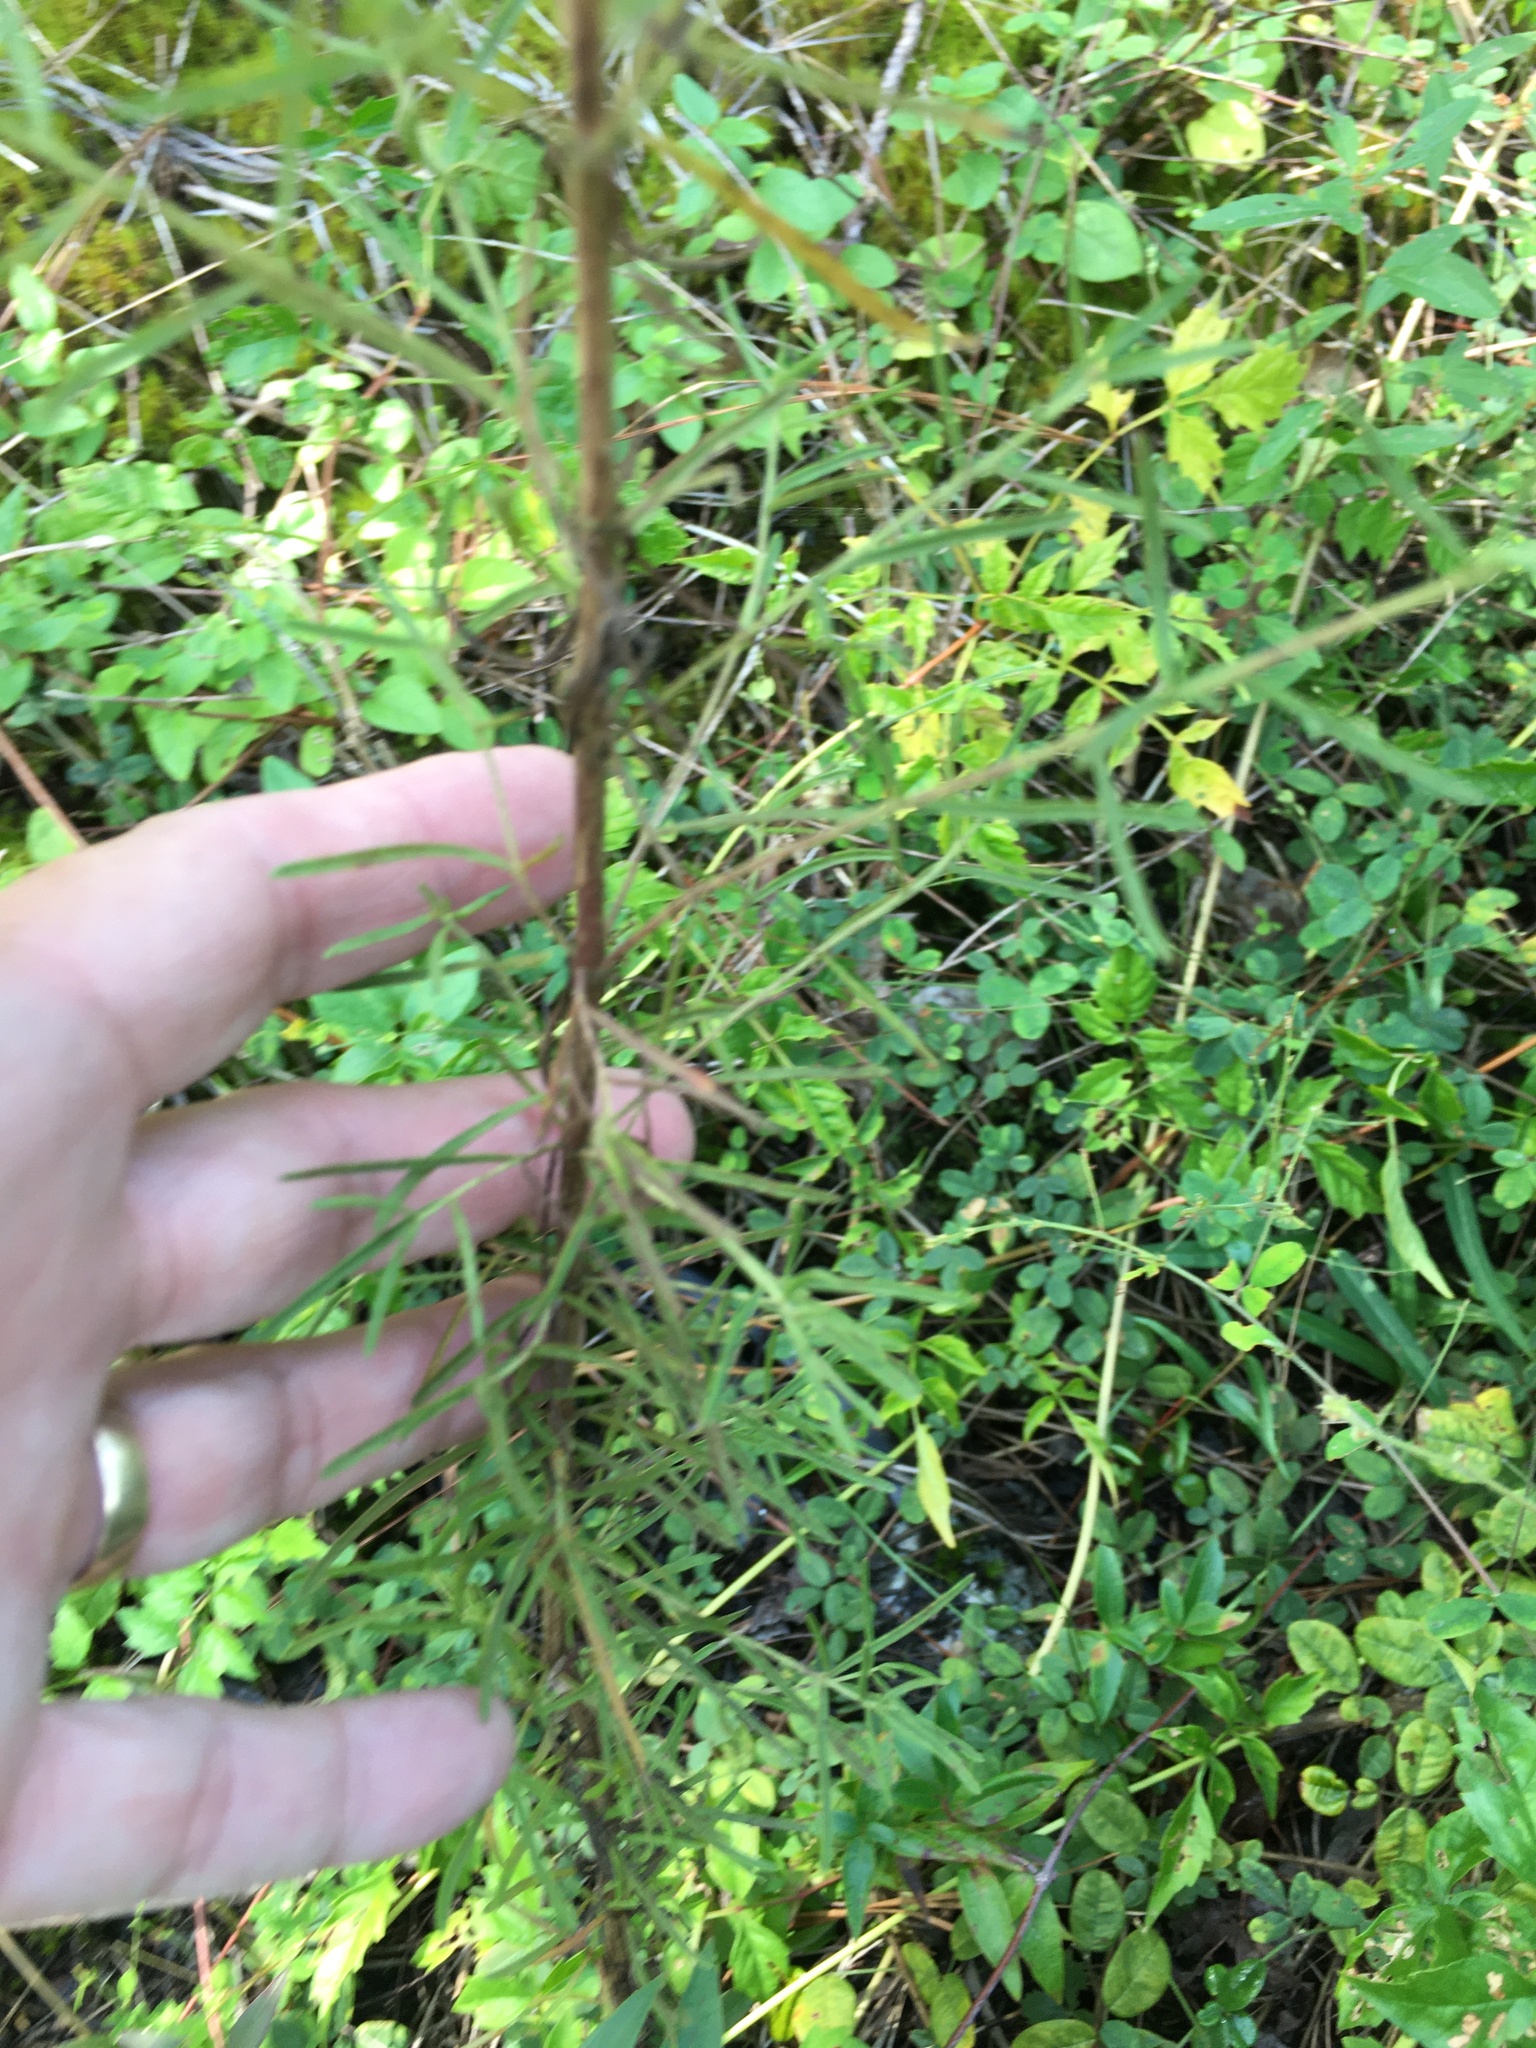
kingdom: Plantae
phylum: Tracheophyta
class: Magnoliopsida
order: Asterales
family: Asteraceae
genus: Eupatorium
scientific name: Eupatorium hyssopifolium
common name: Hyssop-leaf thoroughwort
